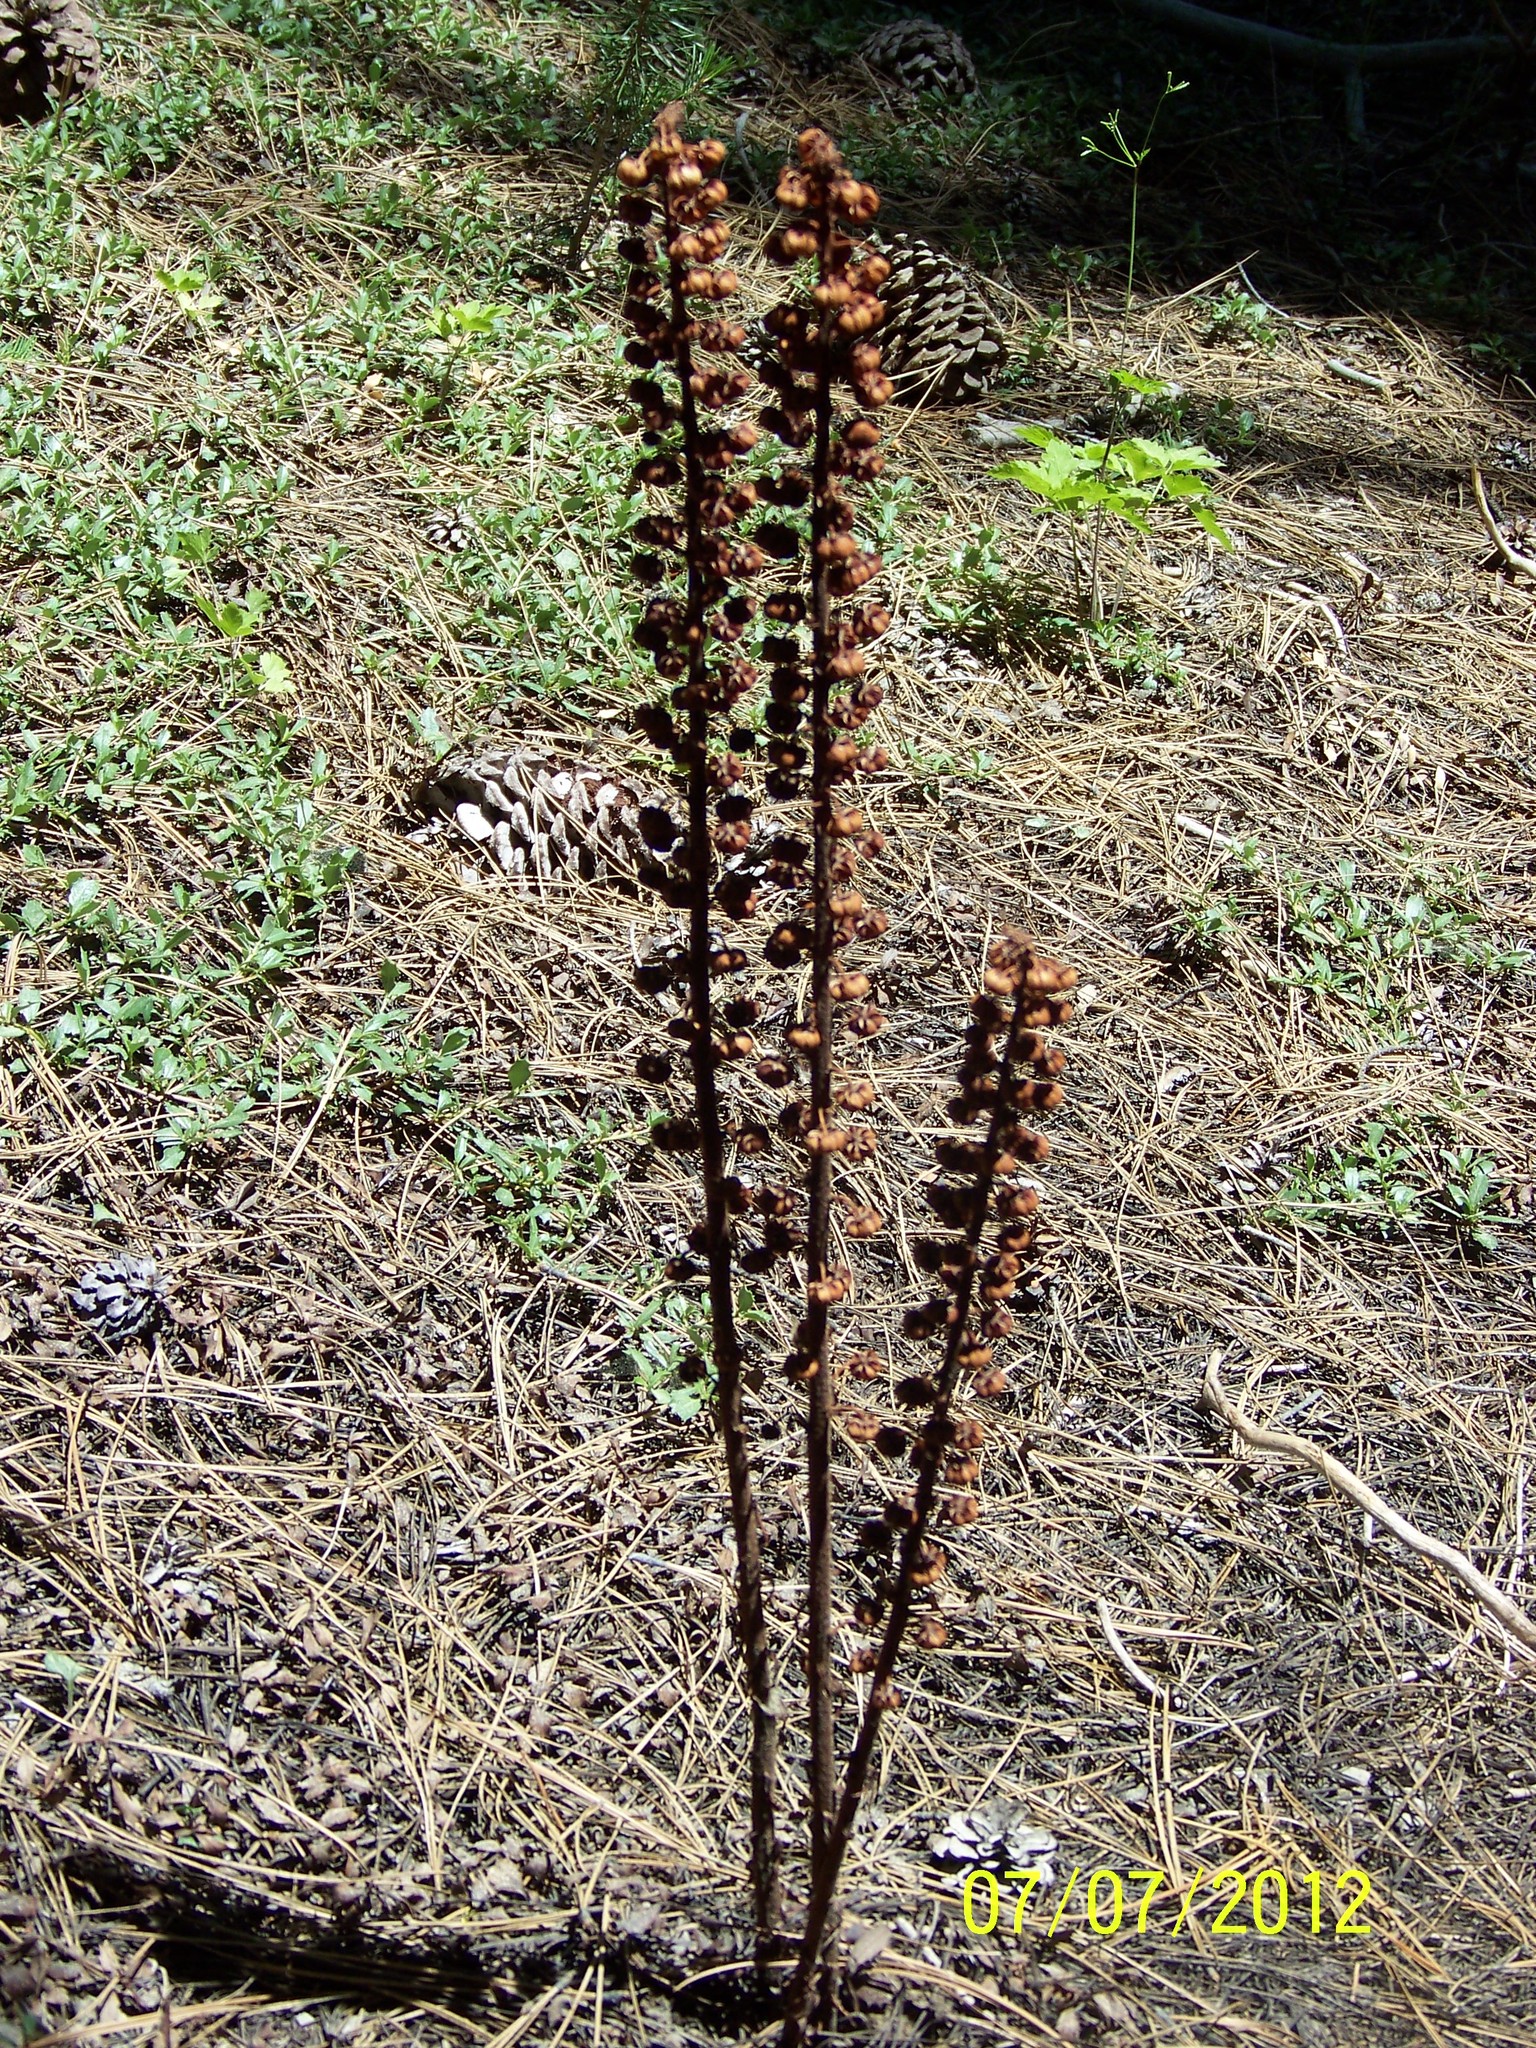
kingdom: Plantae
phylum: Tracheophyta
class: Magnoliopsida
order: Ericales
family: Ericaceae
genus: Pterospora
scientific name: Pterospora andromedea
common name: Giant bird's-nest
